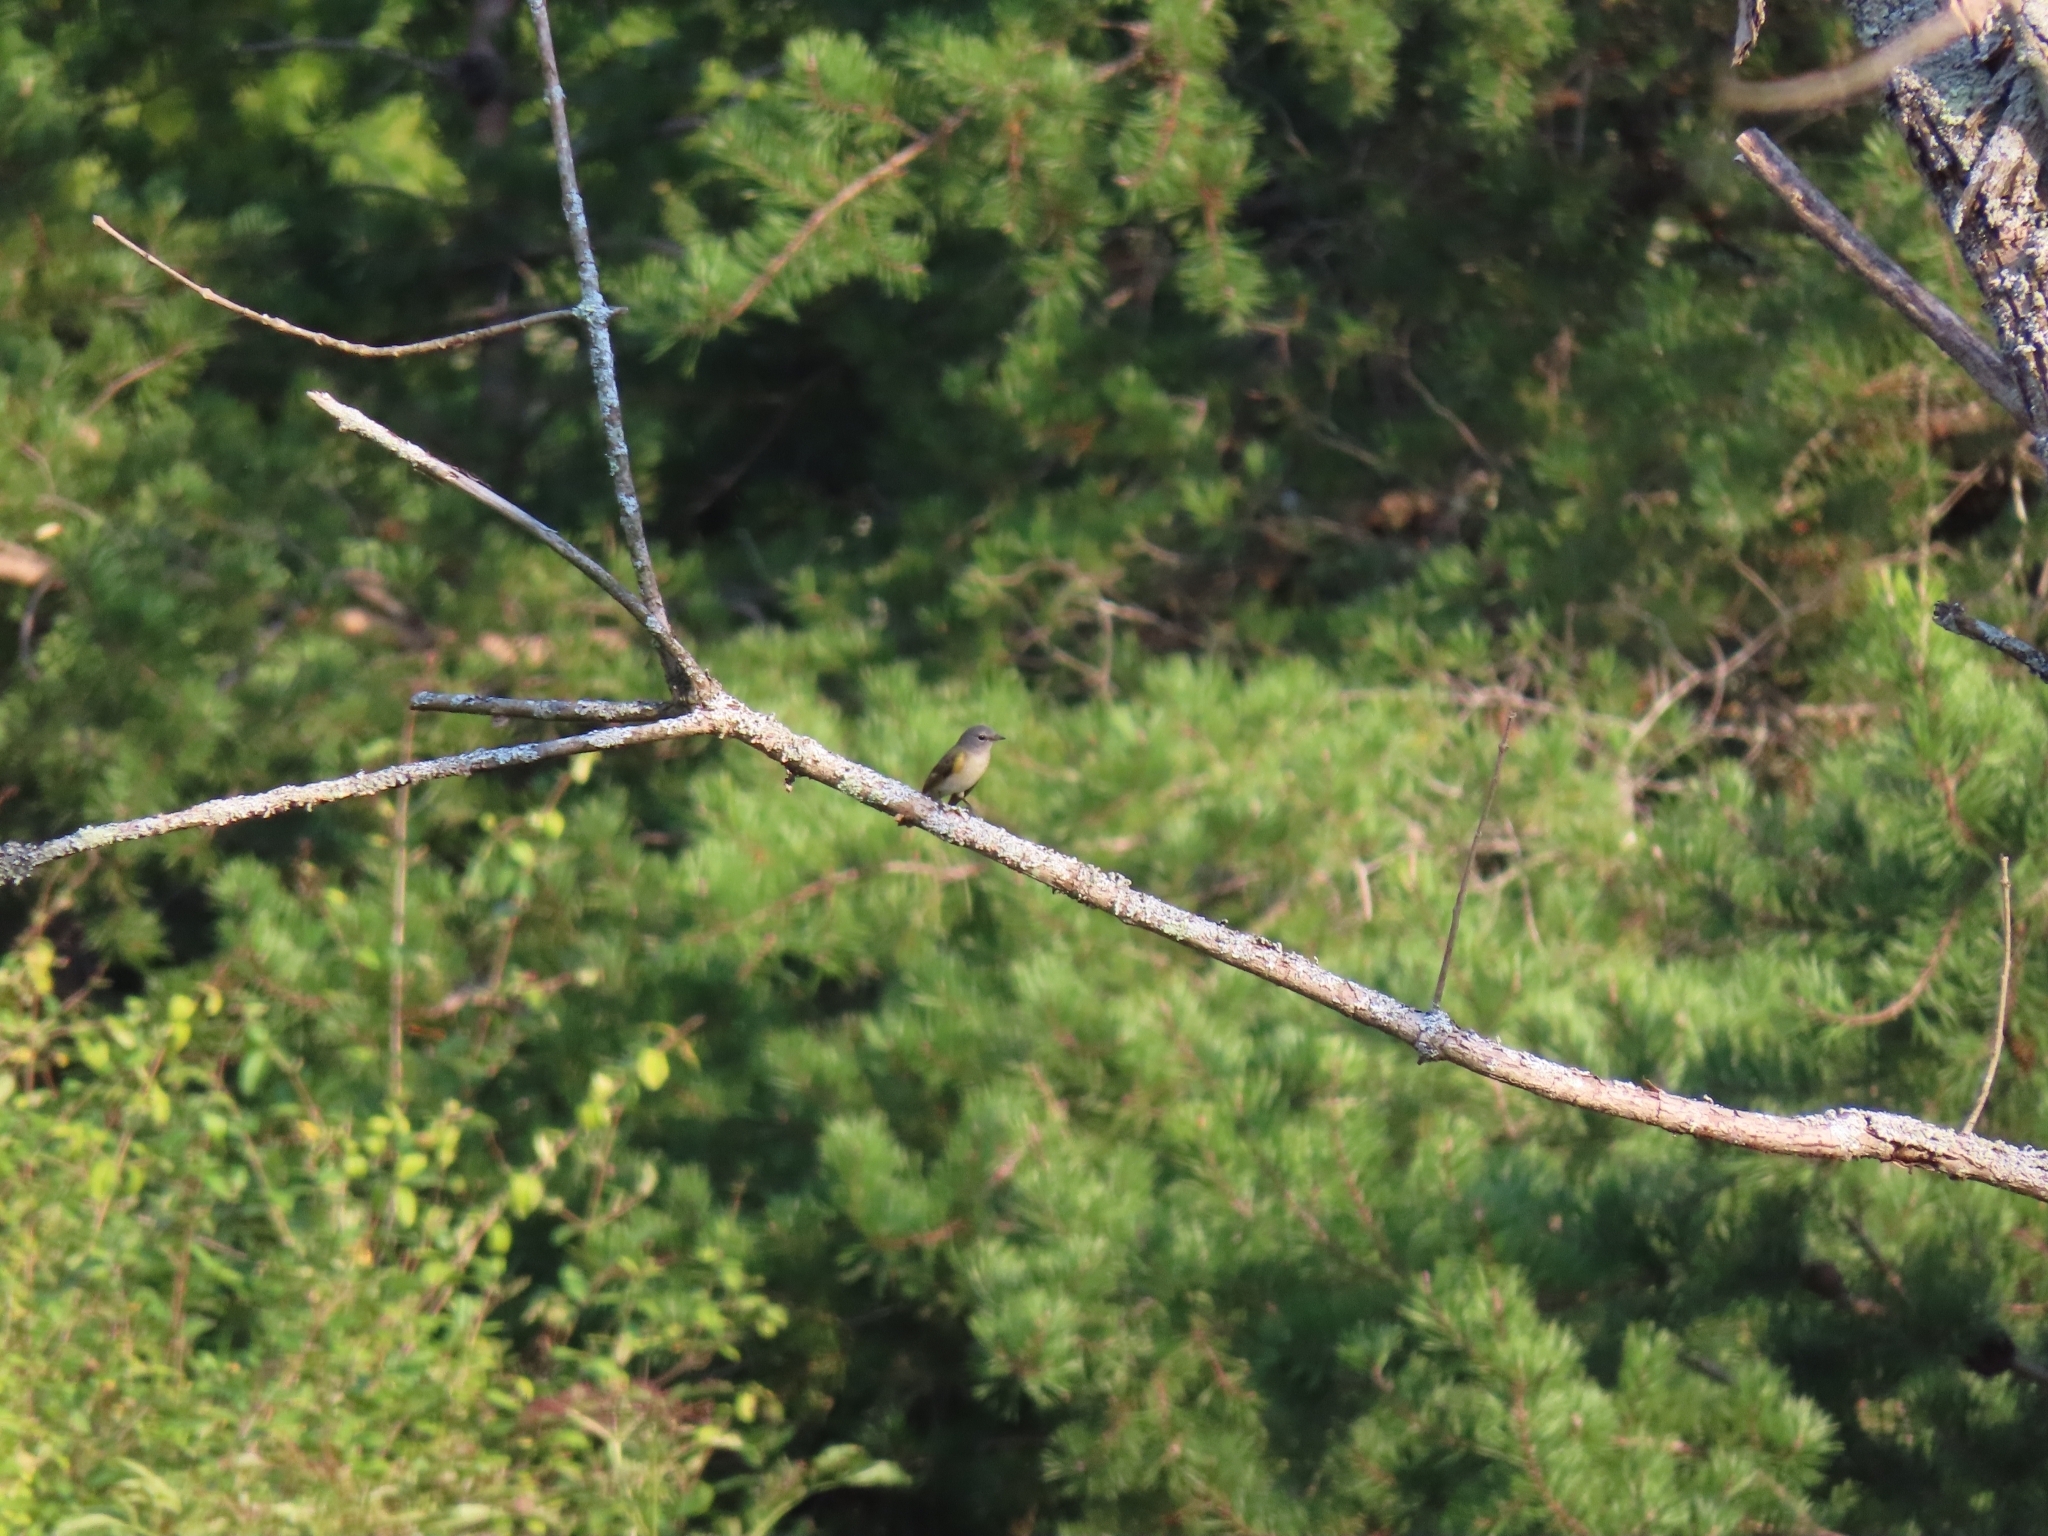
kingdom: Animalia
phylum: Chordata
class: Aves
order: Passeriformes
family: Parulidae
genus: Setophaga
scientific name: Setophaga ruticilla
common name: American redstart
